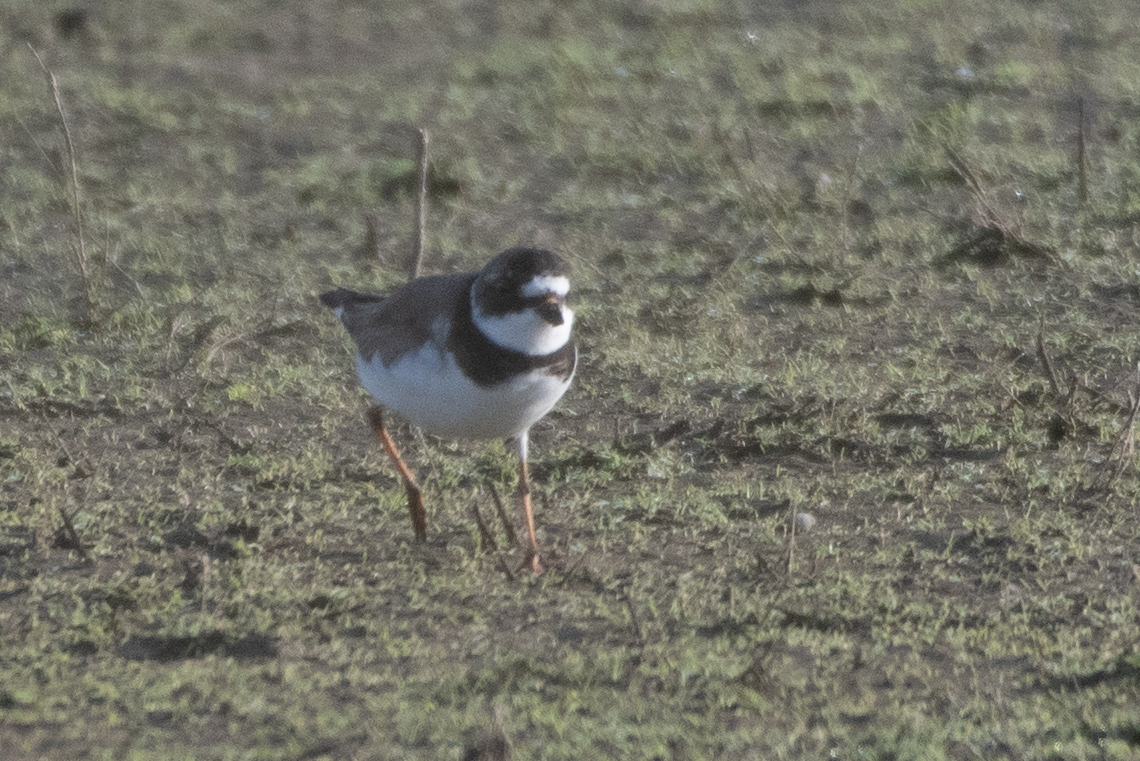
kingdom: Animalia
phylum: Chordata
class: Aves
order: Charadriiformes
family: Charadriidae
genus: Charadrius
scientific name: Charadrius semipalmatus
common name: Semipalmated plover
